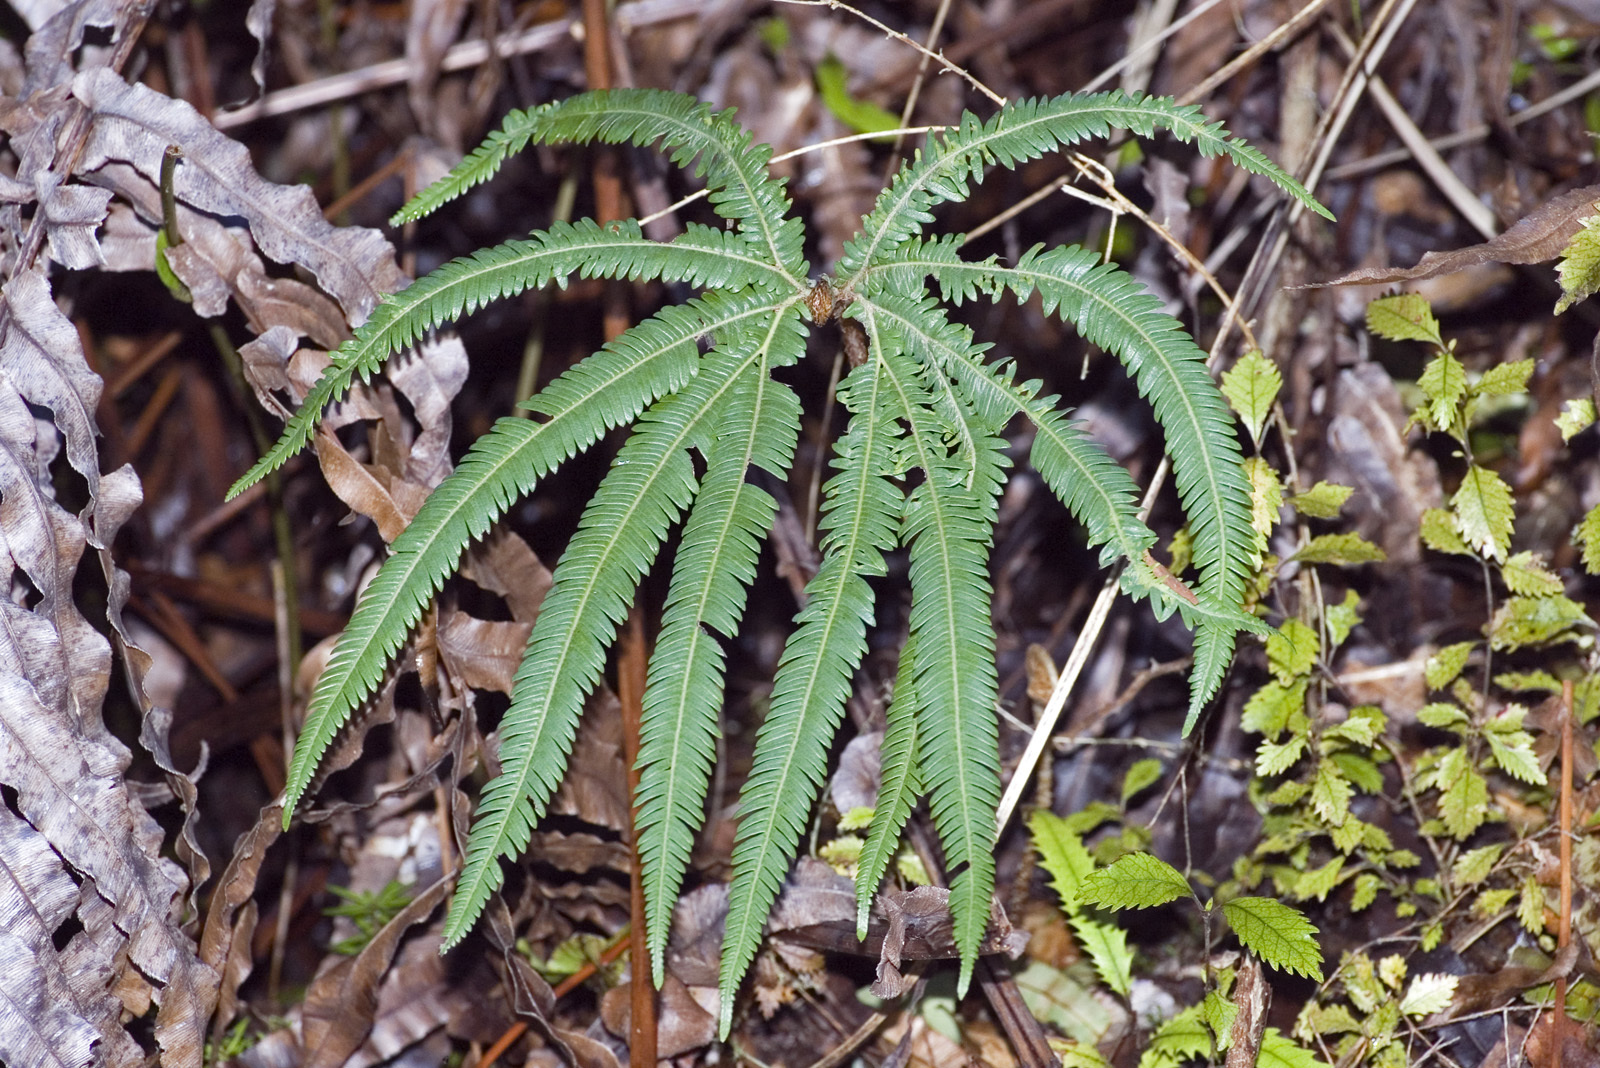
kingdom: Plantae
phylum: Tracheophyta
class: Polypodiopsida
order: Gleicheniales
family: Gleicheniaceae
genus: Sticherus
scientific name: Sticherus cunninghamii
